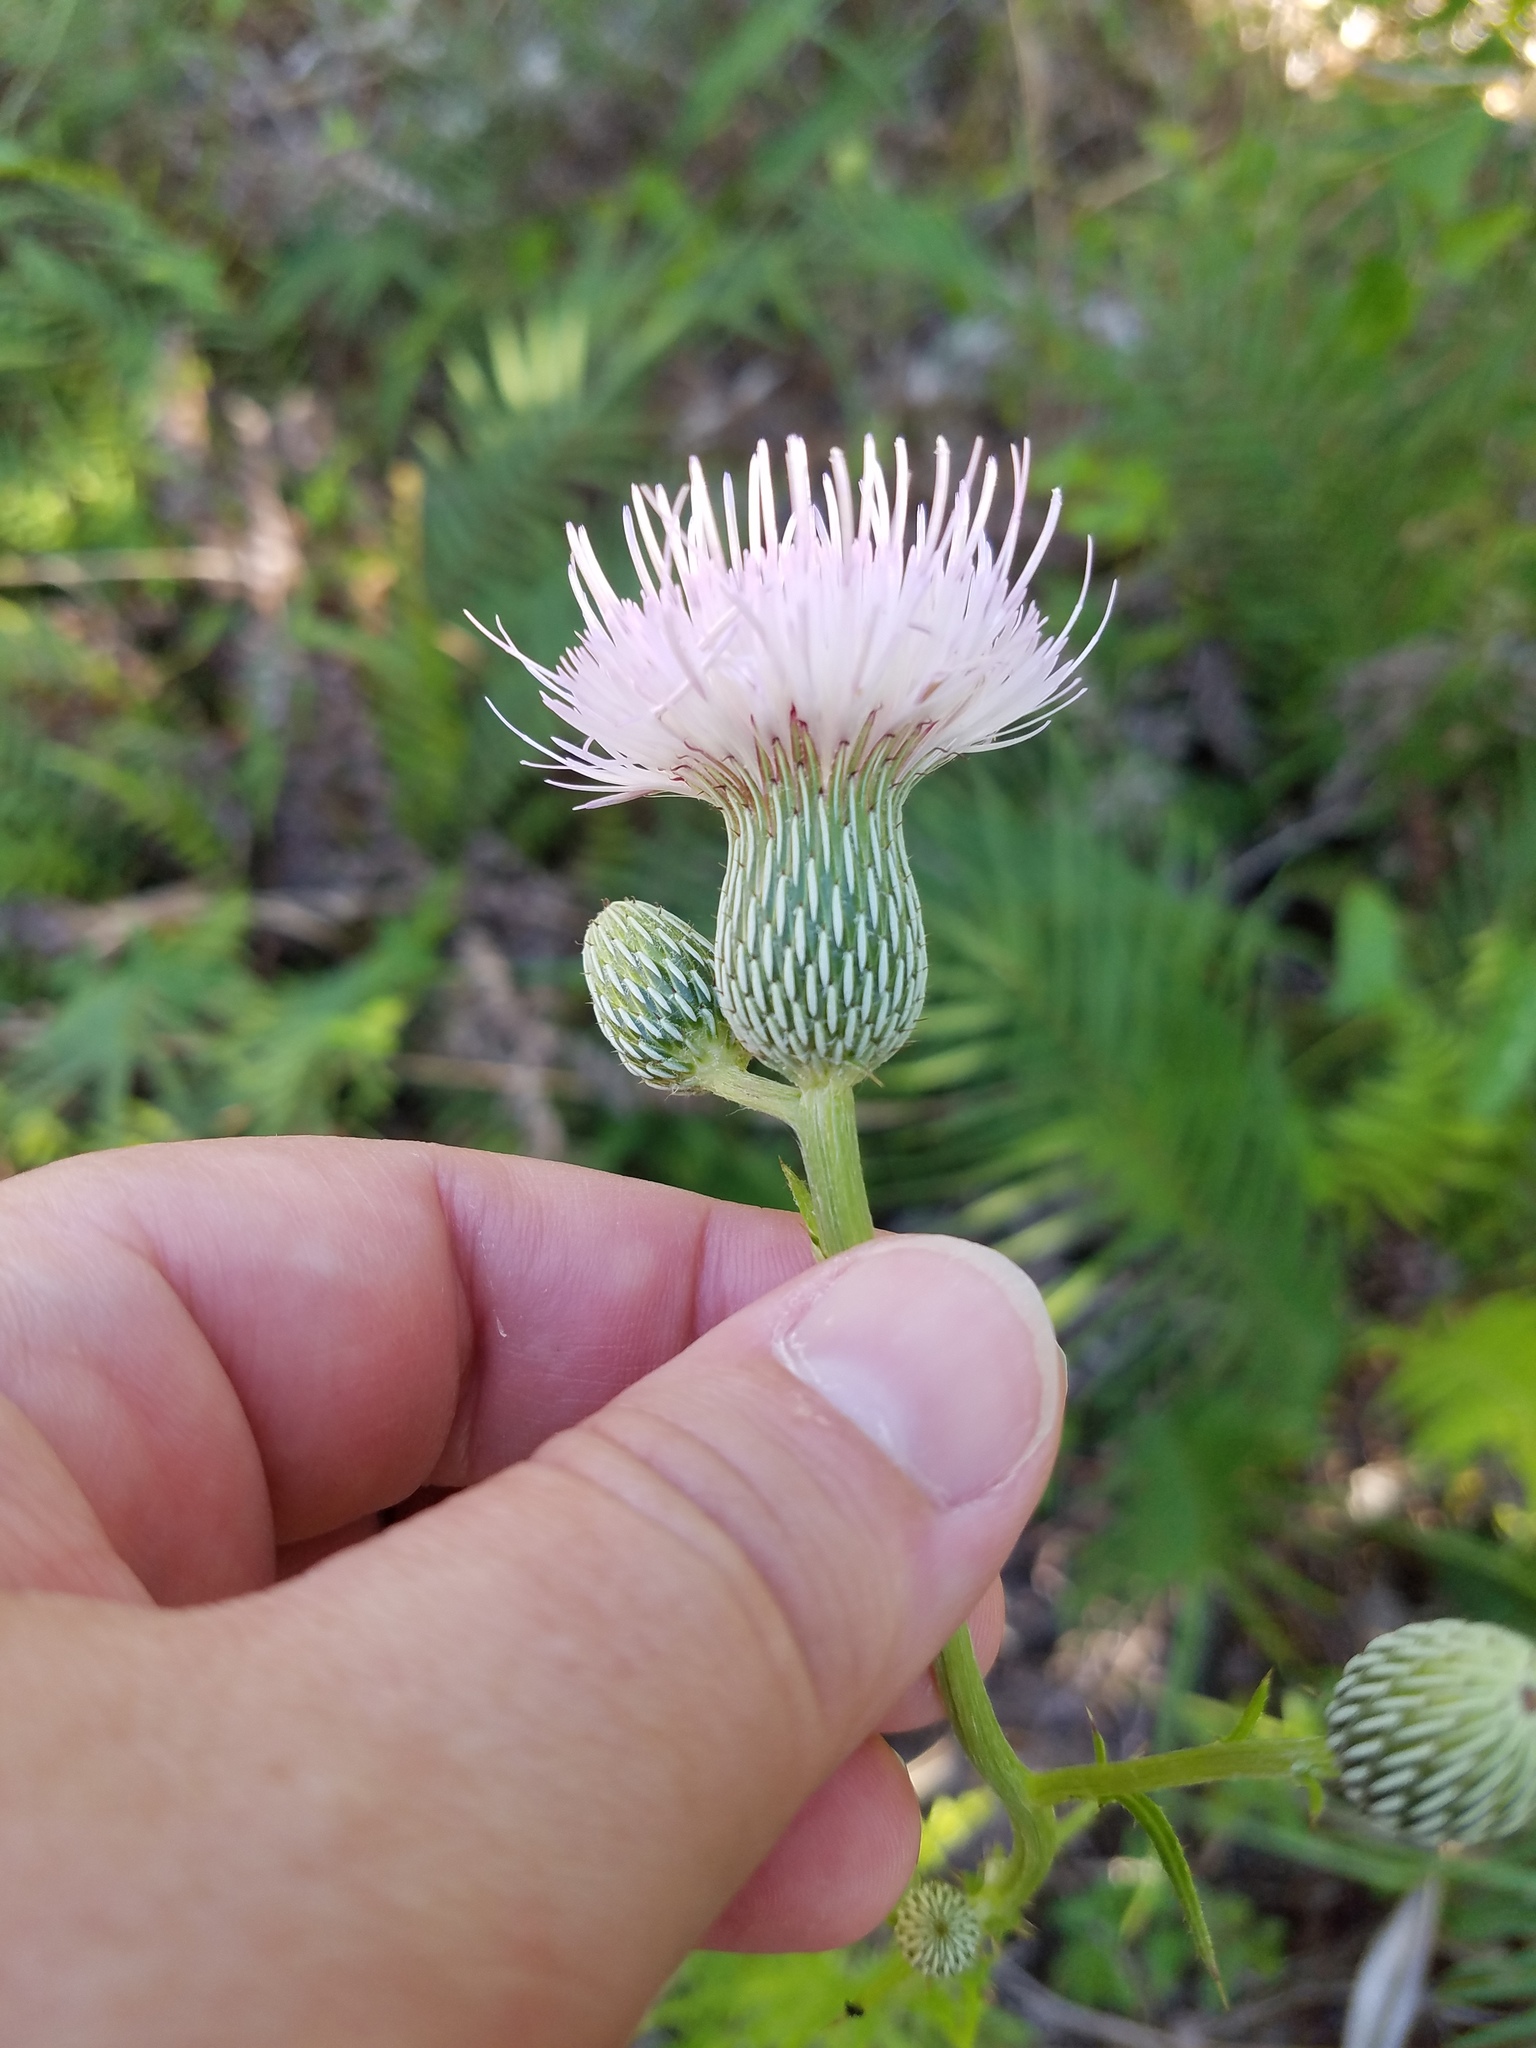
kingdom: Plantae
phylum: Tracheophyta
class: Magnoliopsida
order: Asterales
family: Asteraceae
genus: Cirsium
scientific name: Cirsium nuttalii
